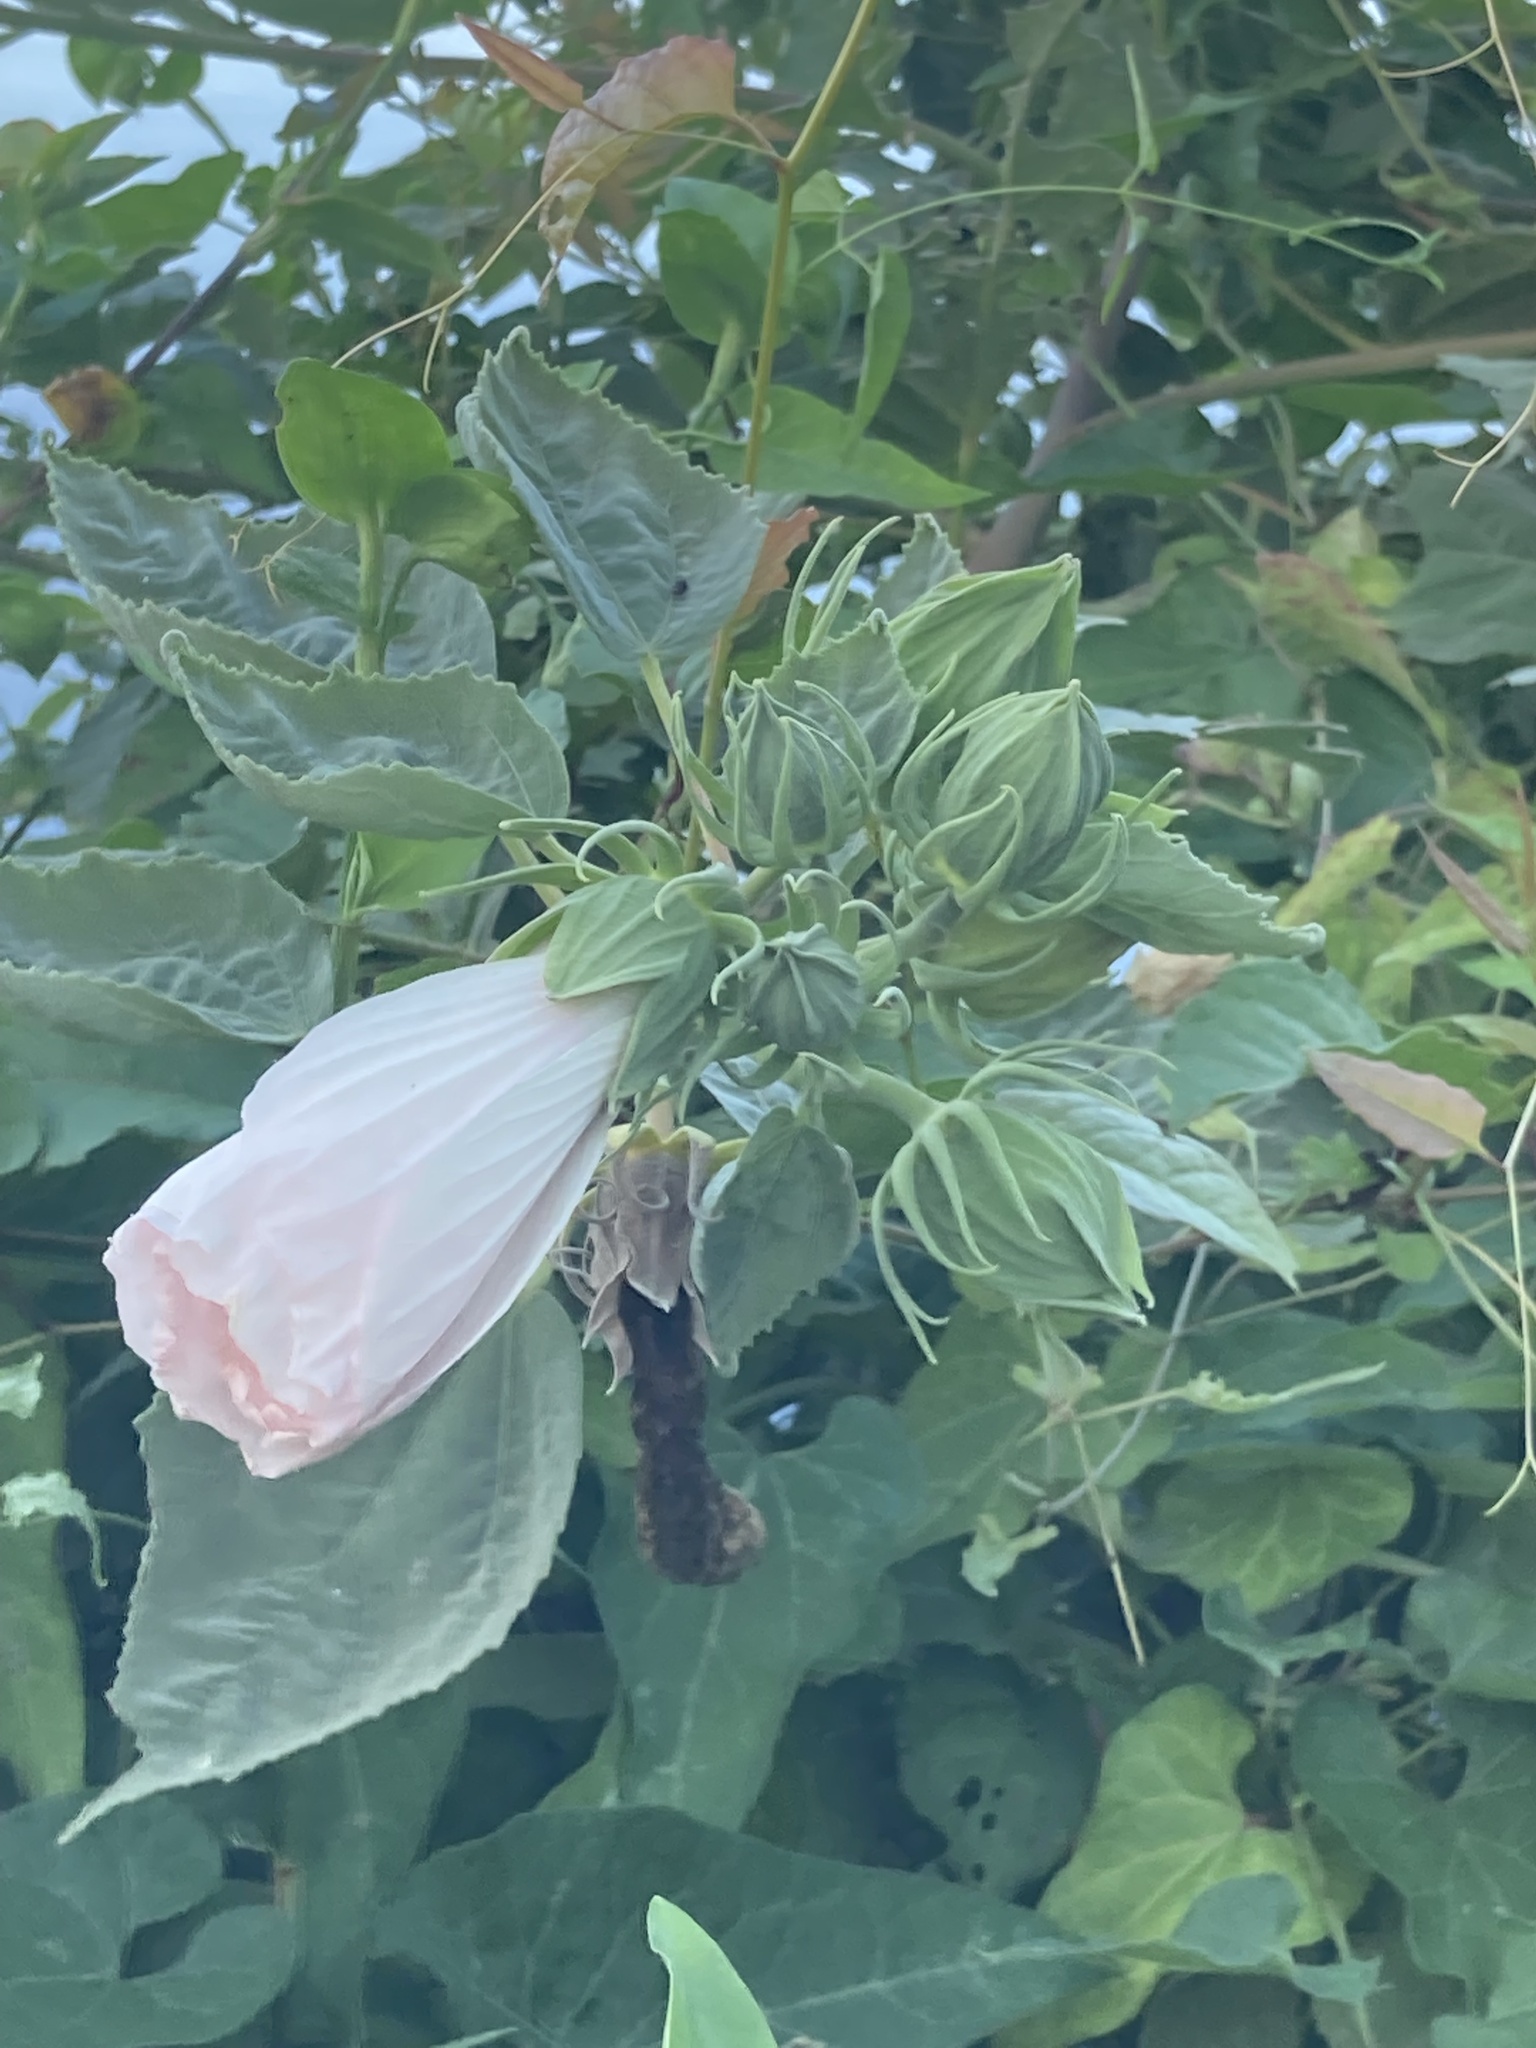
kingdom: Plantae
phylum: Tracheophyta
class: Magnoliopsida
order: Malvales
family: Malvaceae
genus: Hibiscus
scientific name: Hibiscus moscheutos
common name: Common rose-mallow
